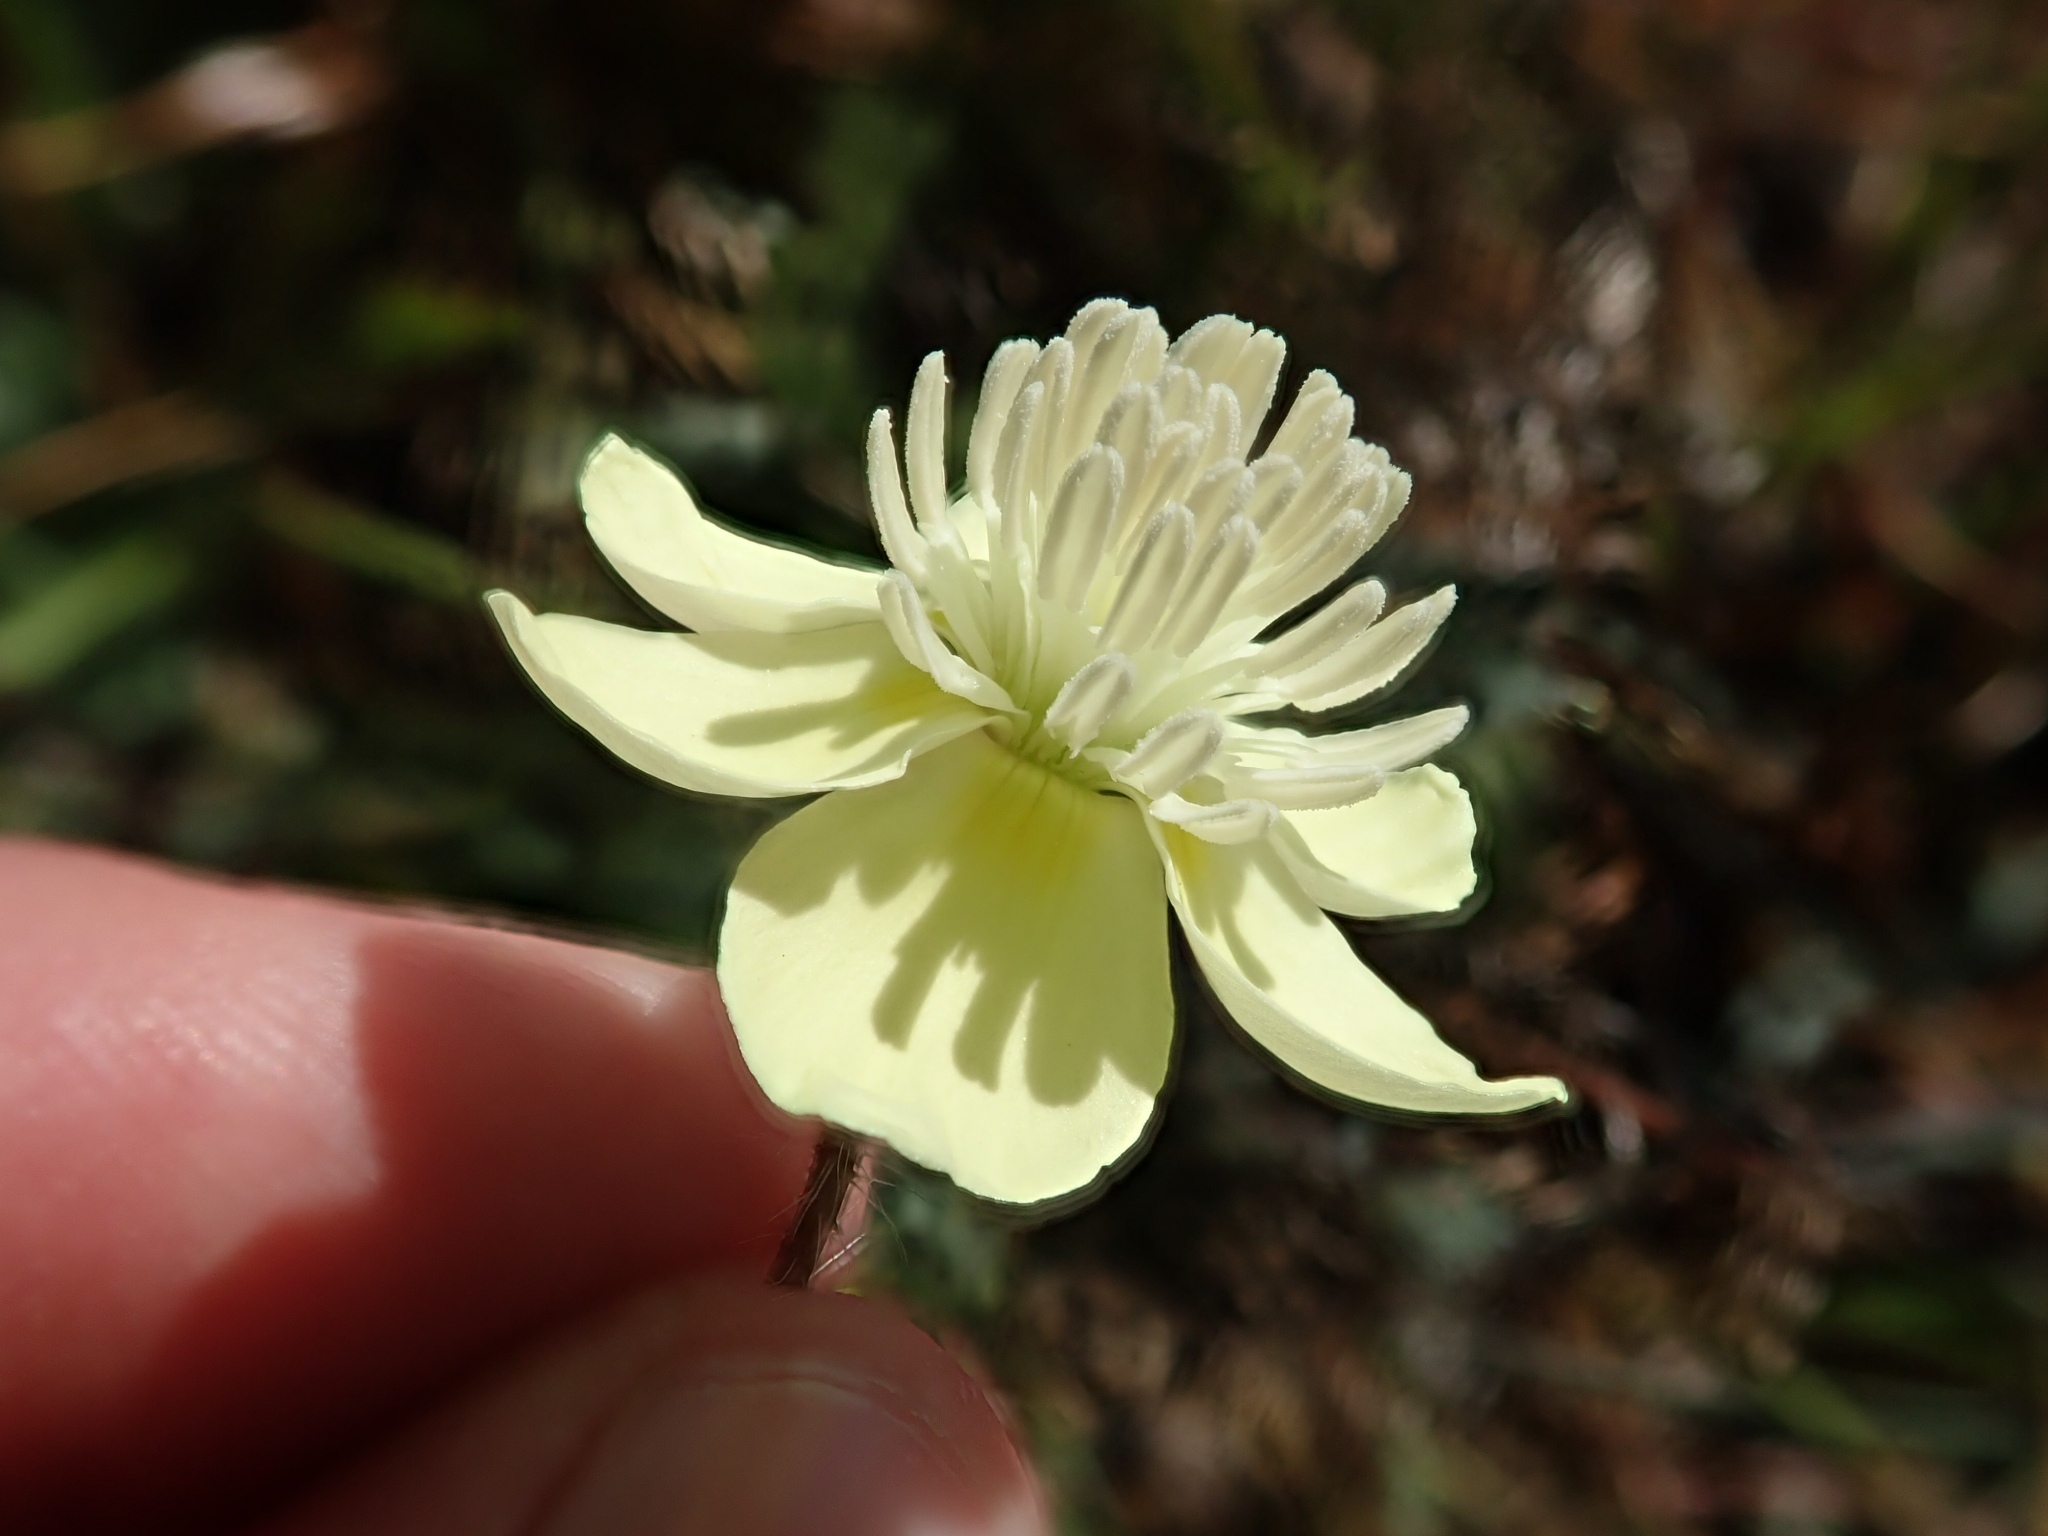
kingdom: Plantae
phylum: Tracheophyta
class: Magnoliopsida
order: Ranunculales
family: Papaveraceae
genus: Platystemon
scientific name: Platystemon californicus
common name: Cream-cups
